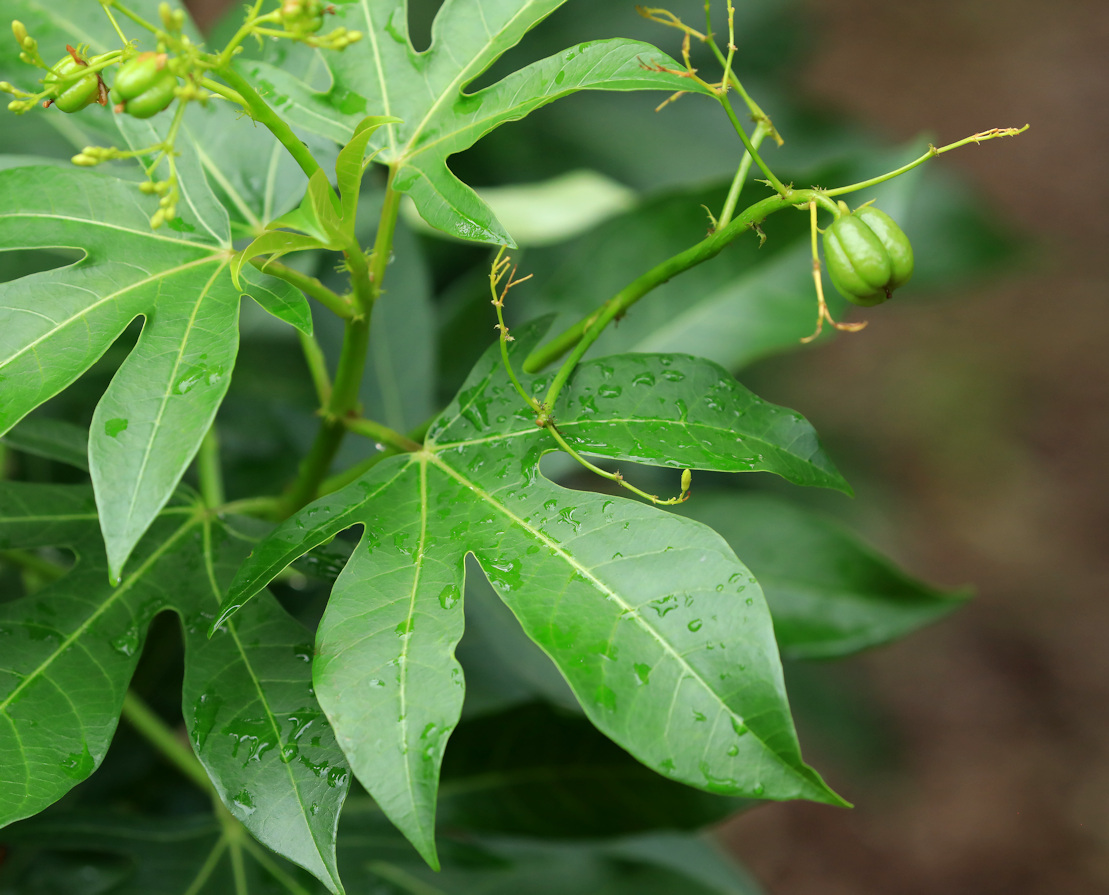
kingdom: Plantae
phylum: Tracheophyta
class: Magnoliopsida
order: Malpighiales
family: Euphorbiaceae
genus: Jatropha
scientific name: Jatropha variifolia
